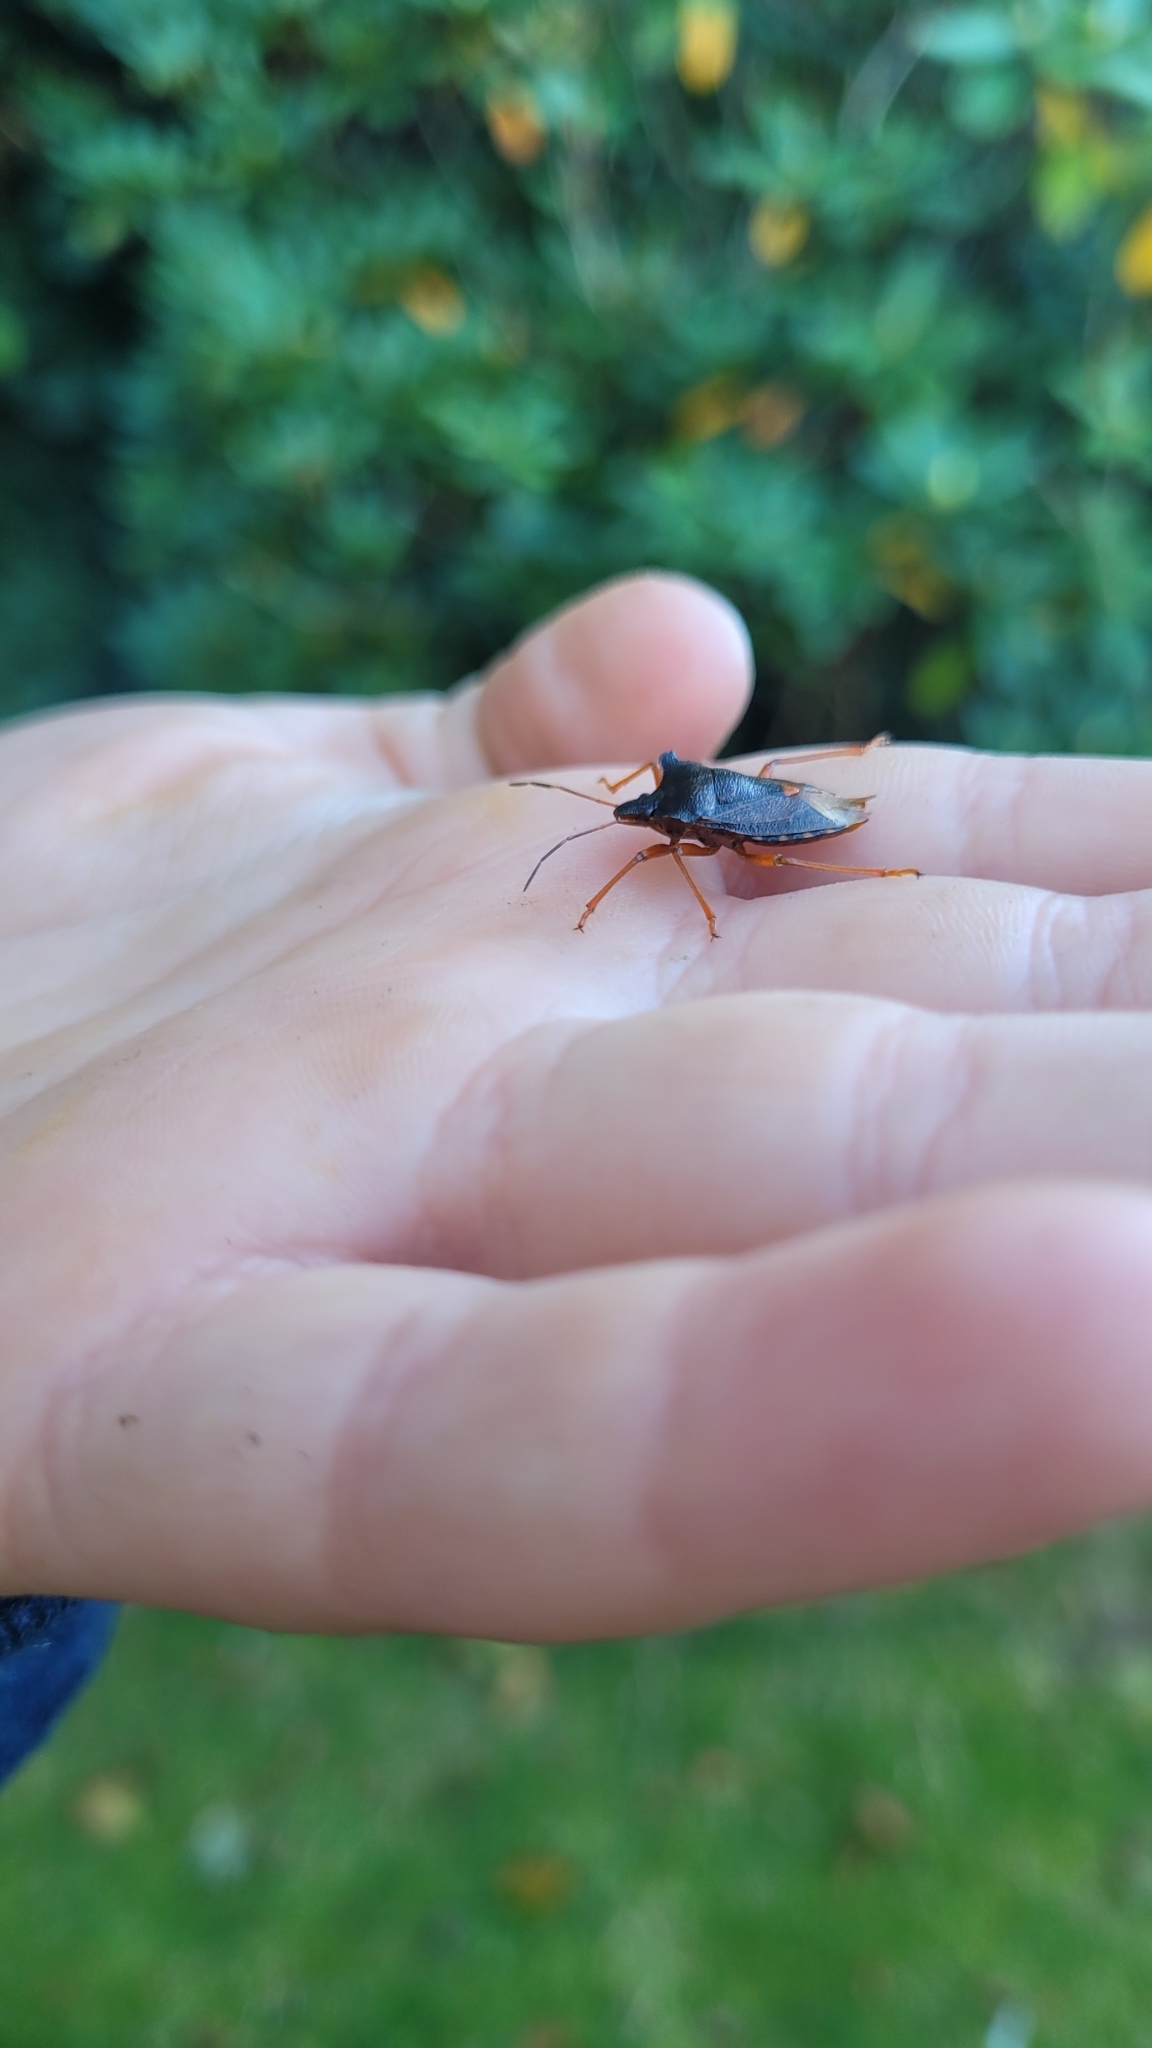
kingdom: Animalia
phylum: Arthropoda
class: Insecta
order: Hemiptera
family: Pentatomidae
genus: Pentatoma
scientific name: Pentatoma rufipes
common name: Forest bug
